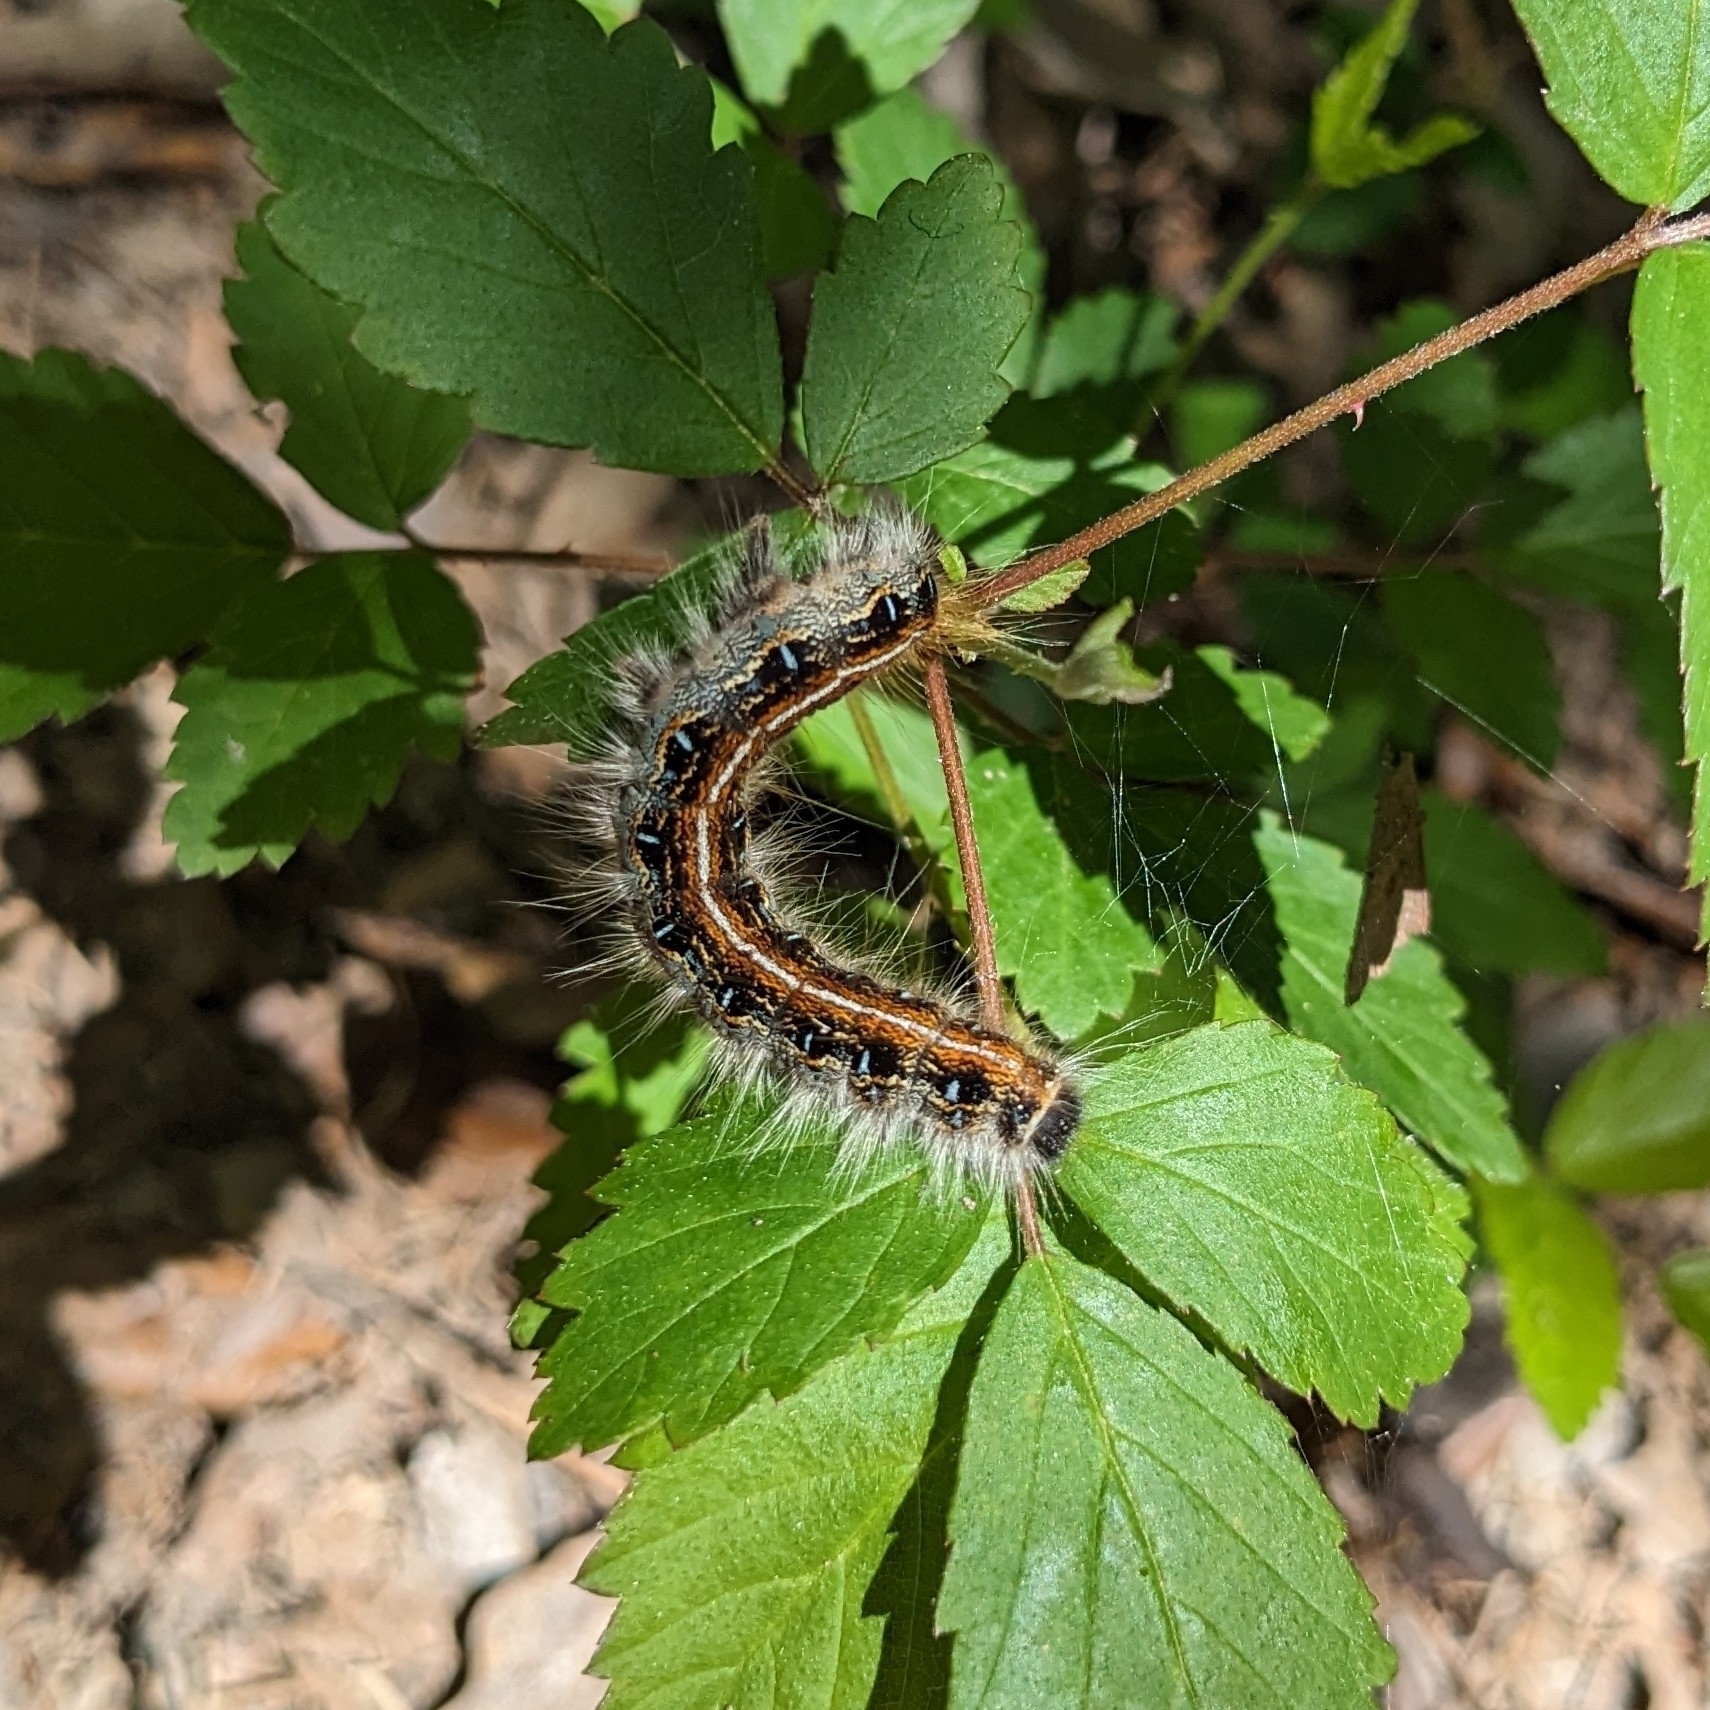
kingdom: Animalia
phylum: Arthropoda
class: Insecta
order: Lepidoptera
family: Lasiocampidae
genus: Malacosoma
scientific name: Malacosoma americana
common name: Eastern tent caterpillar moth
